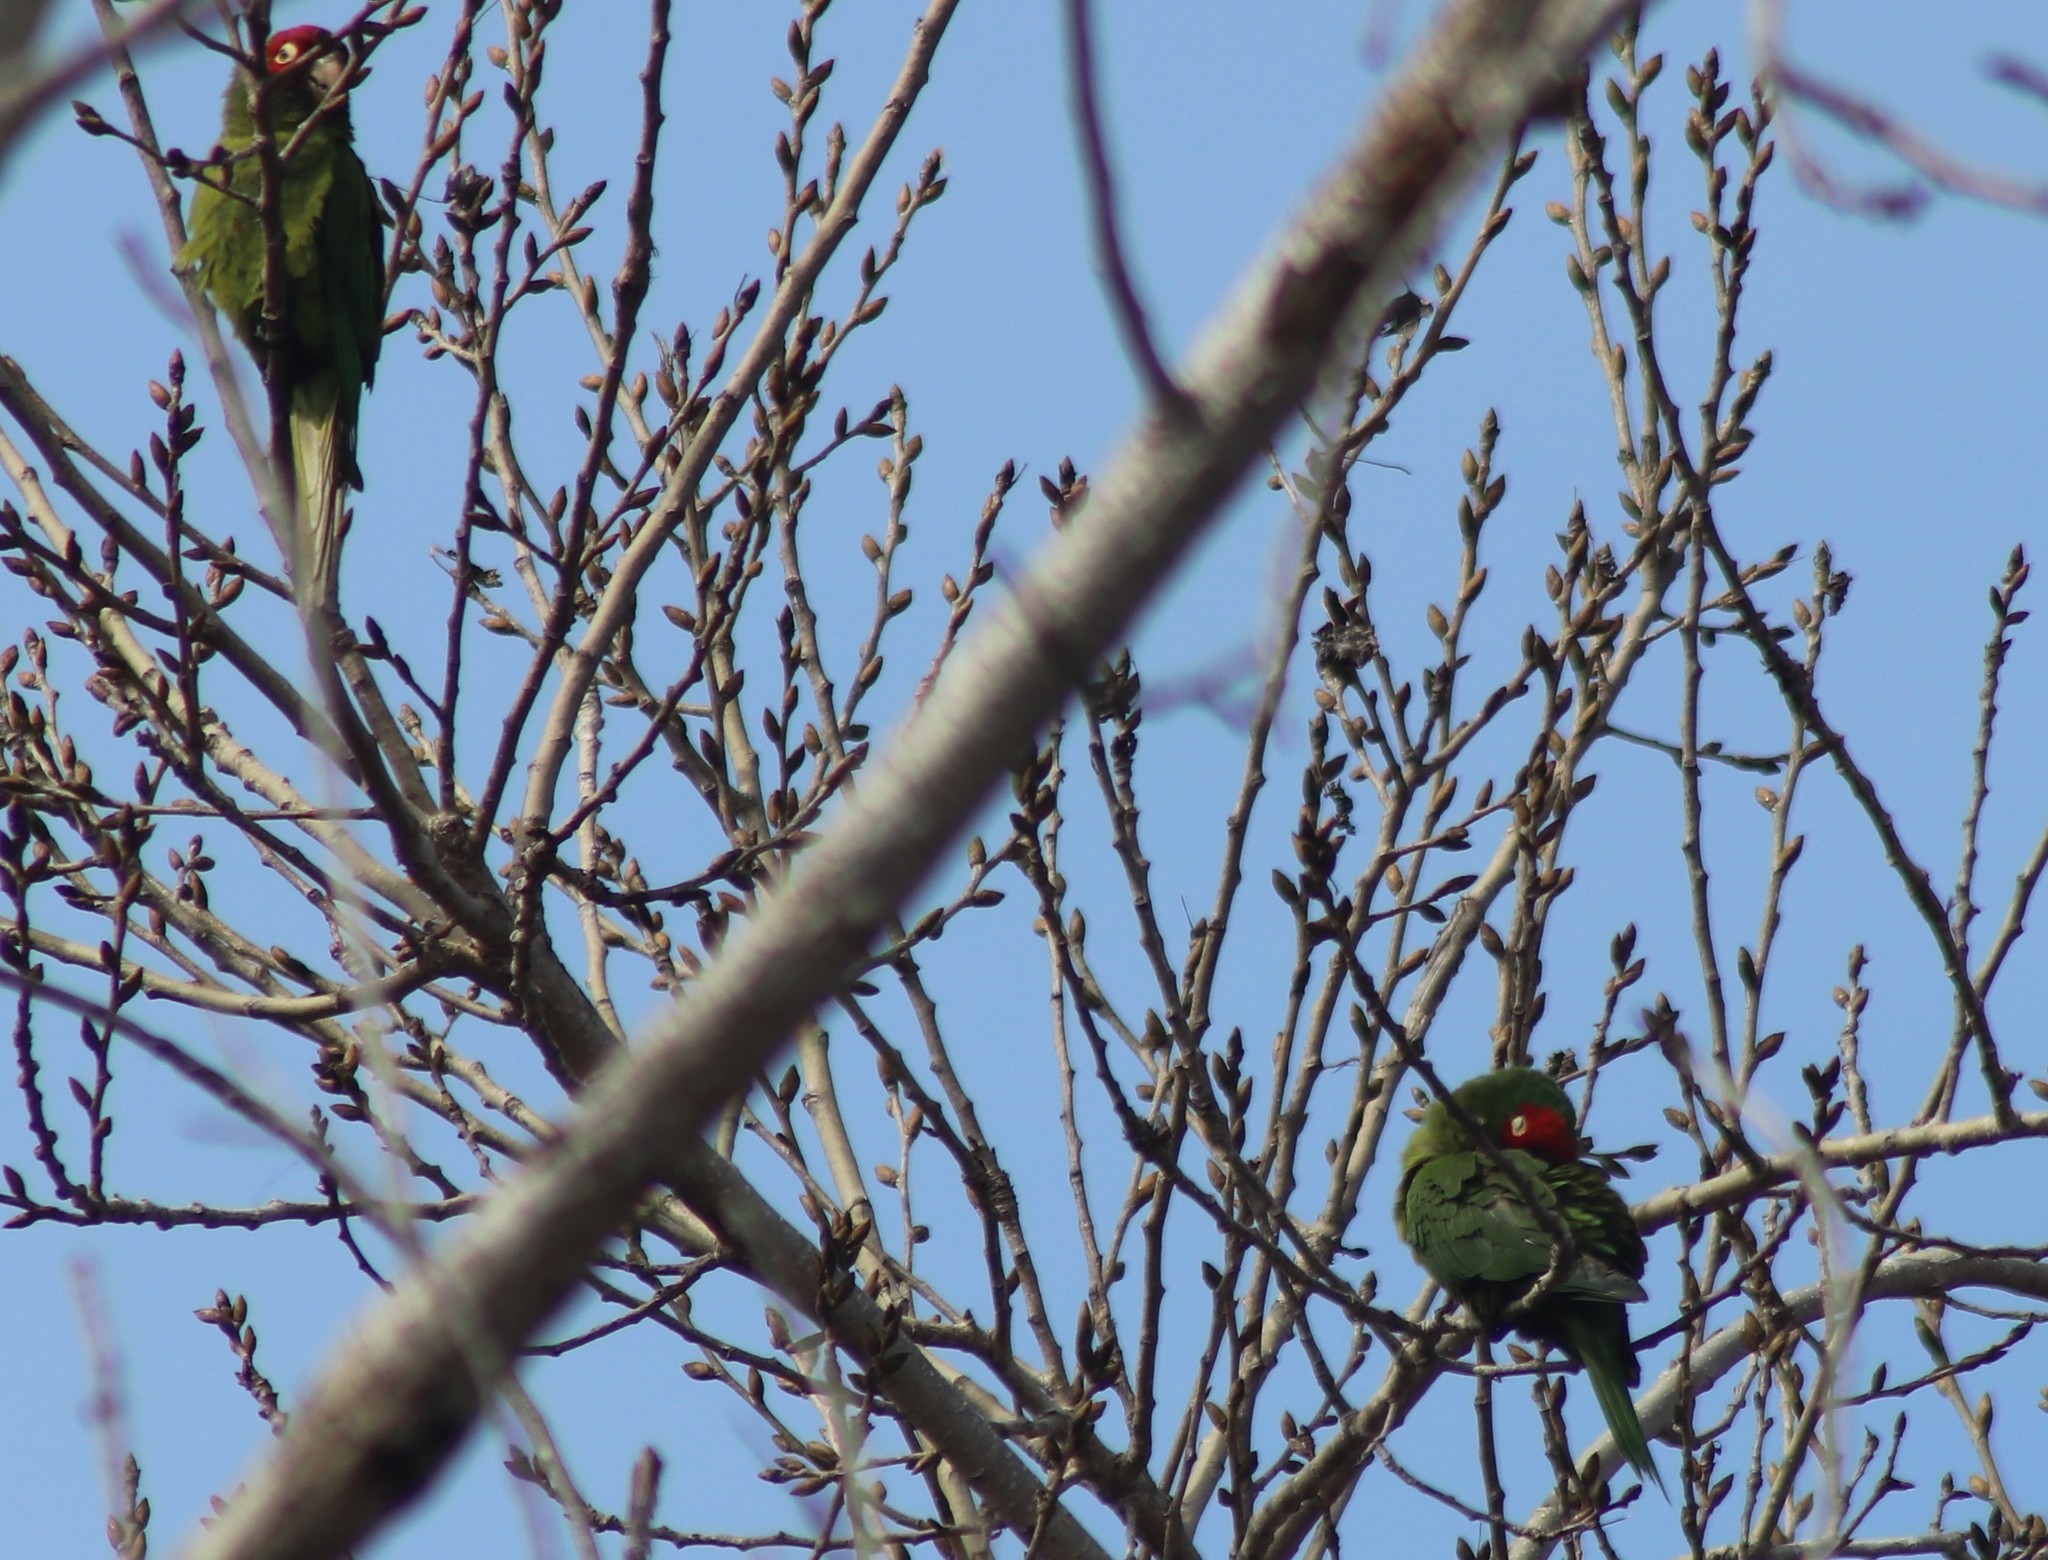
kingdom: Animalia
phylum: Chordata
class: Aves
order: Psittaciformes
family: Psittacidae
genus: Aratinga
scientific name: Aratinga erythrogenys
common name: Red-masked parakeet
